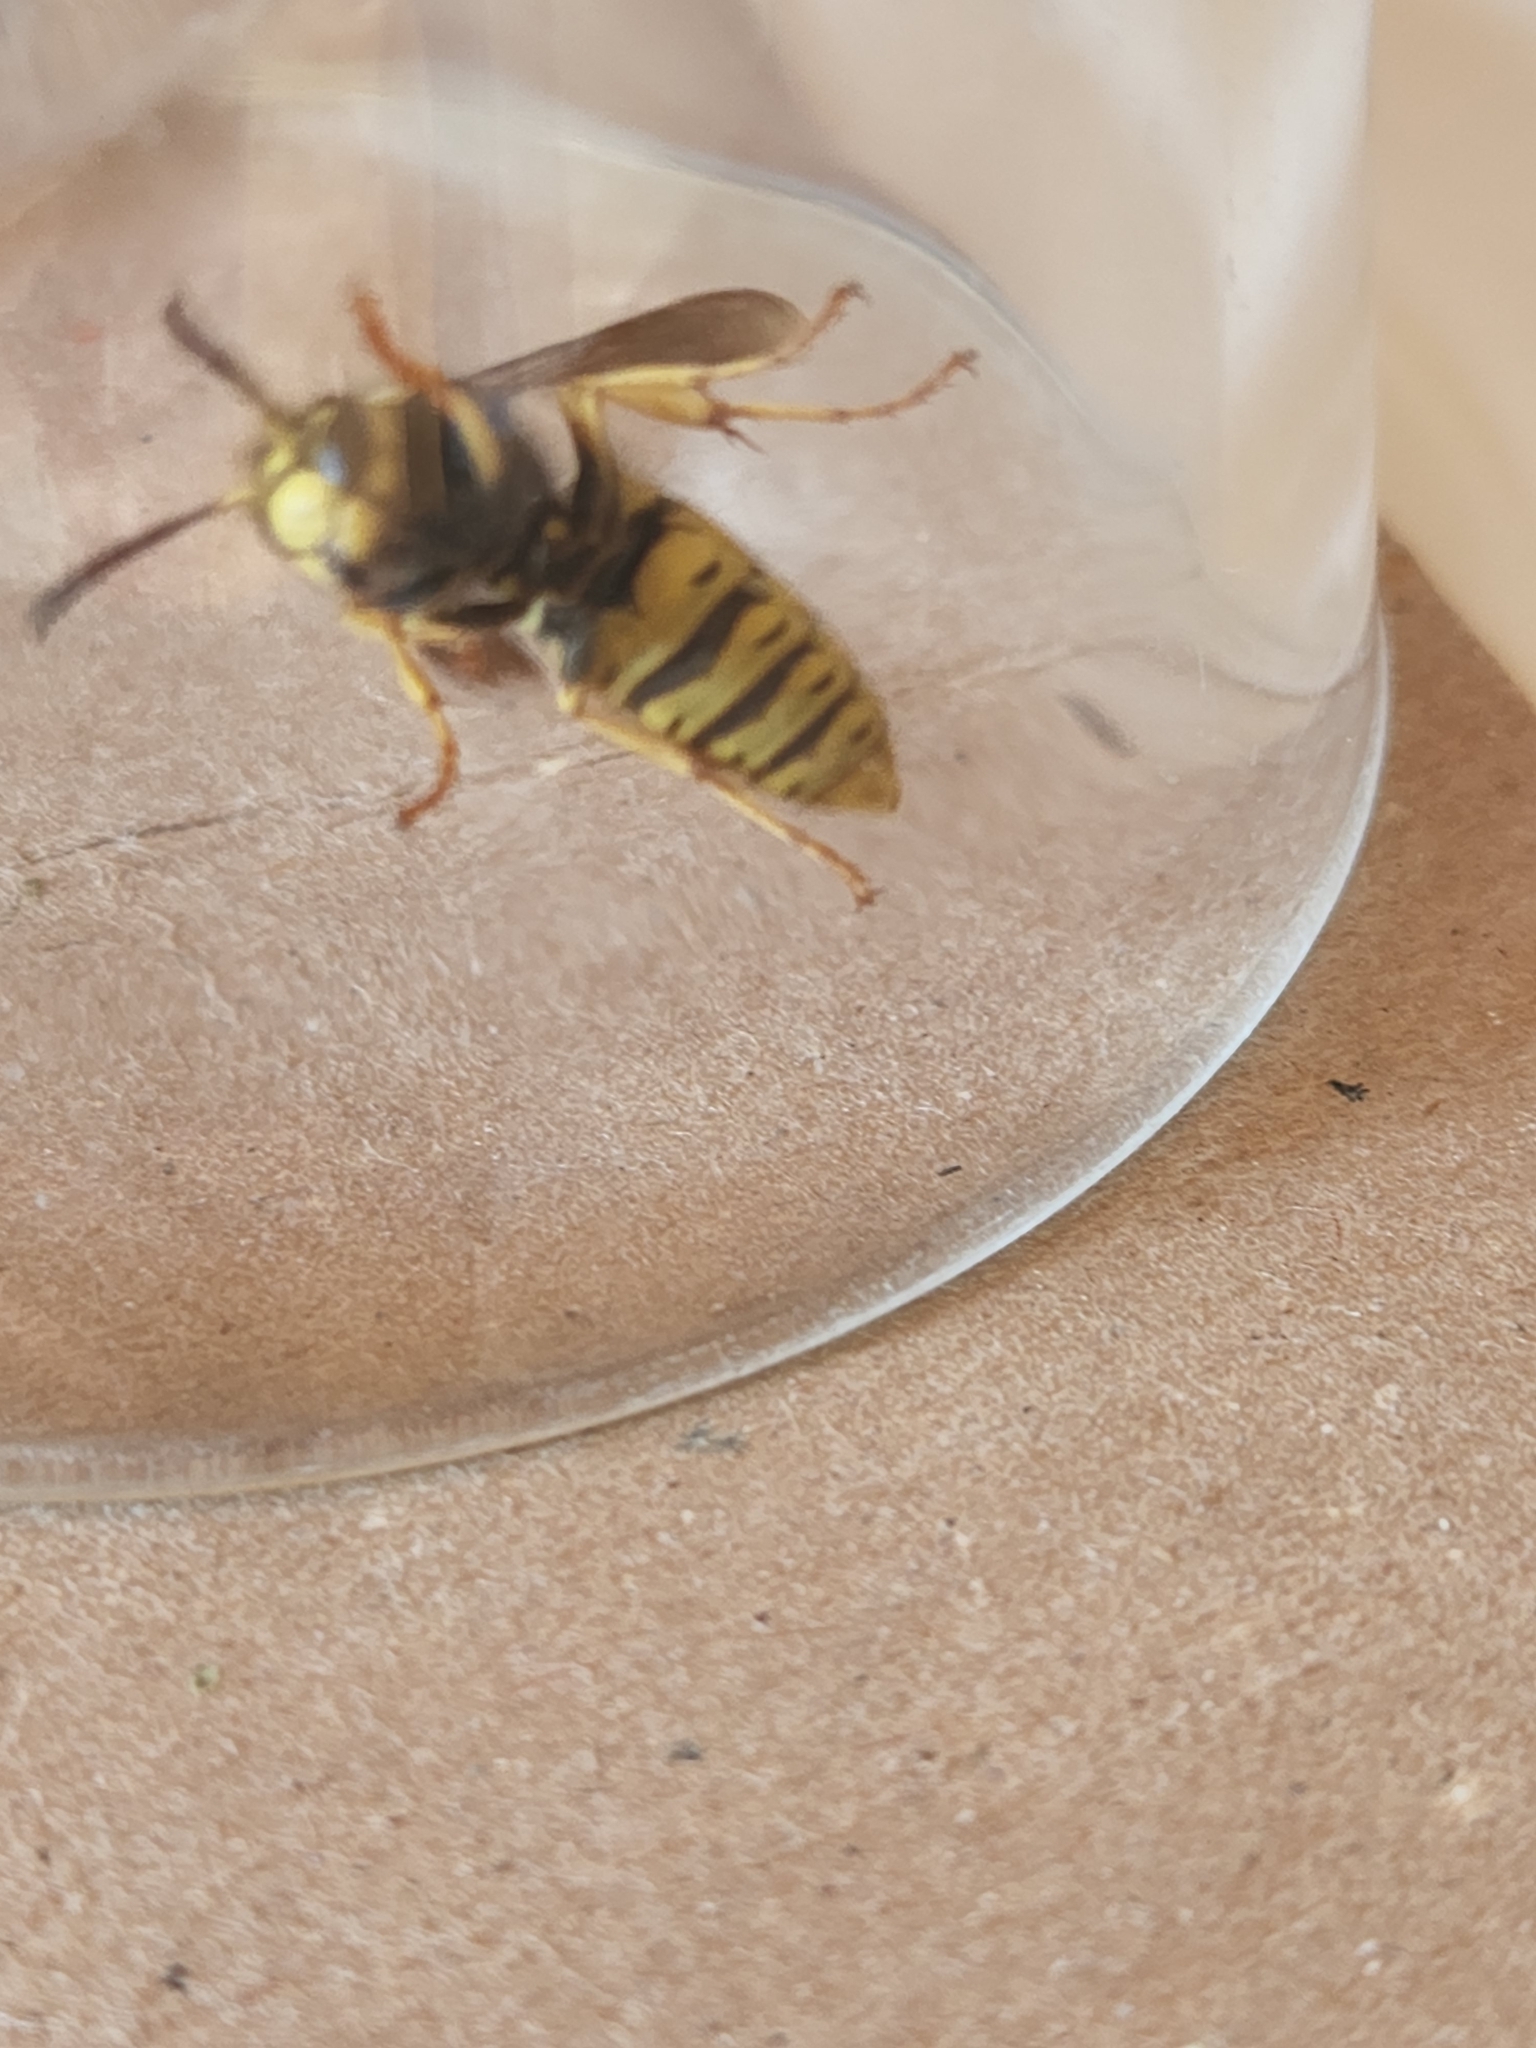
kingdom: Animalia
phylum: Arthropoda
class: Insecta
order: Hymenoptera
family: Vespidae
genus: Vespula
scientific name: Vespula atropilosa
